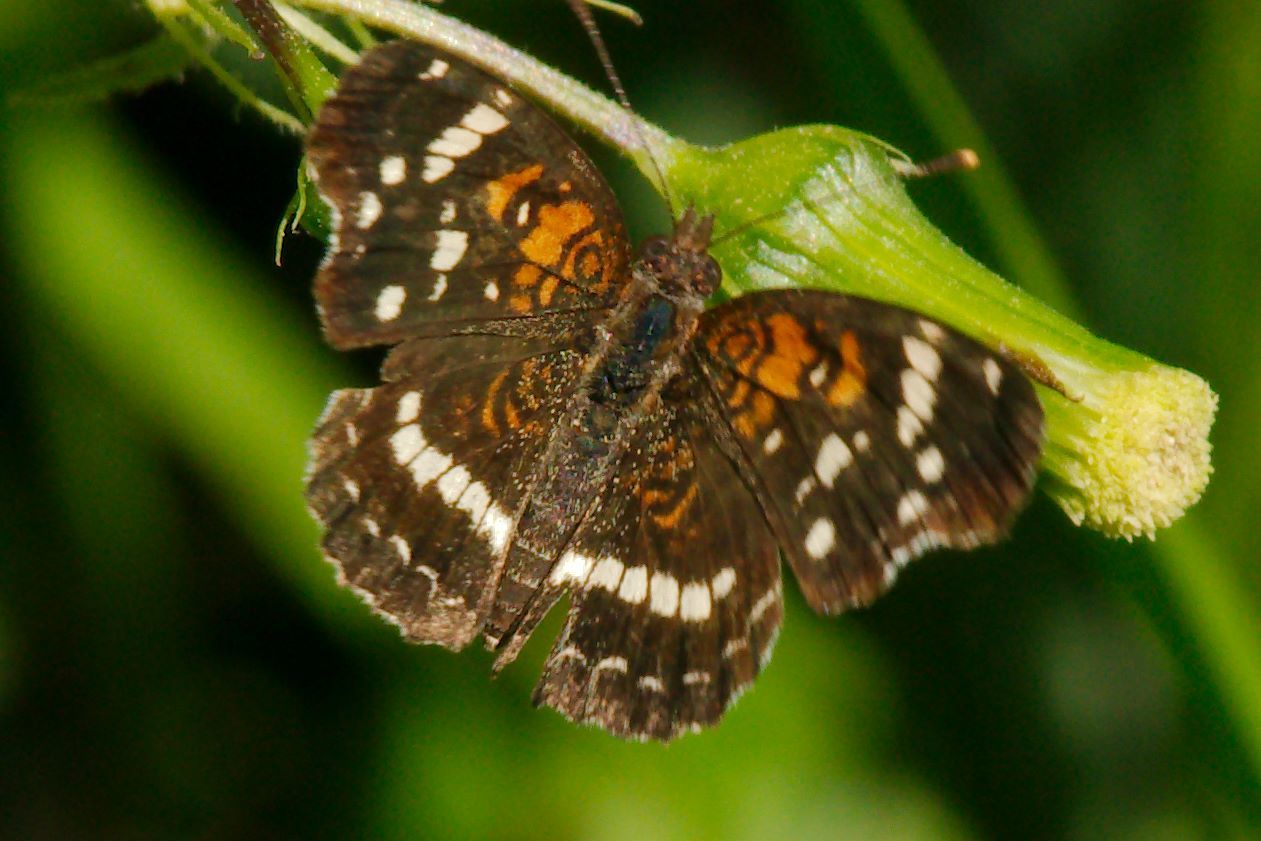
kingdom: Animalia
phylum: Arthropoda
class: Insecta
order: Lepidoptera
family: Nymphalidae
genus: Anthanassa
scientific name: Anthanassa taxana
